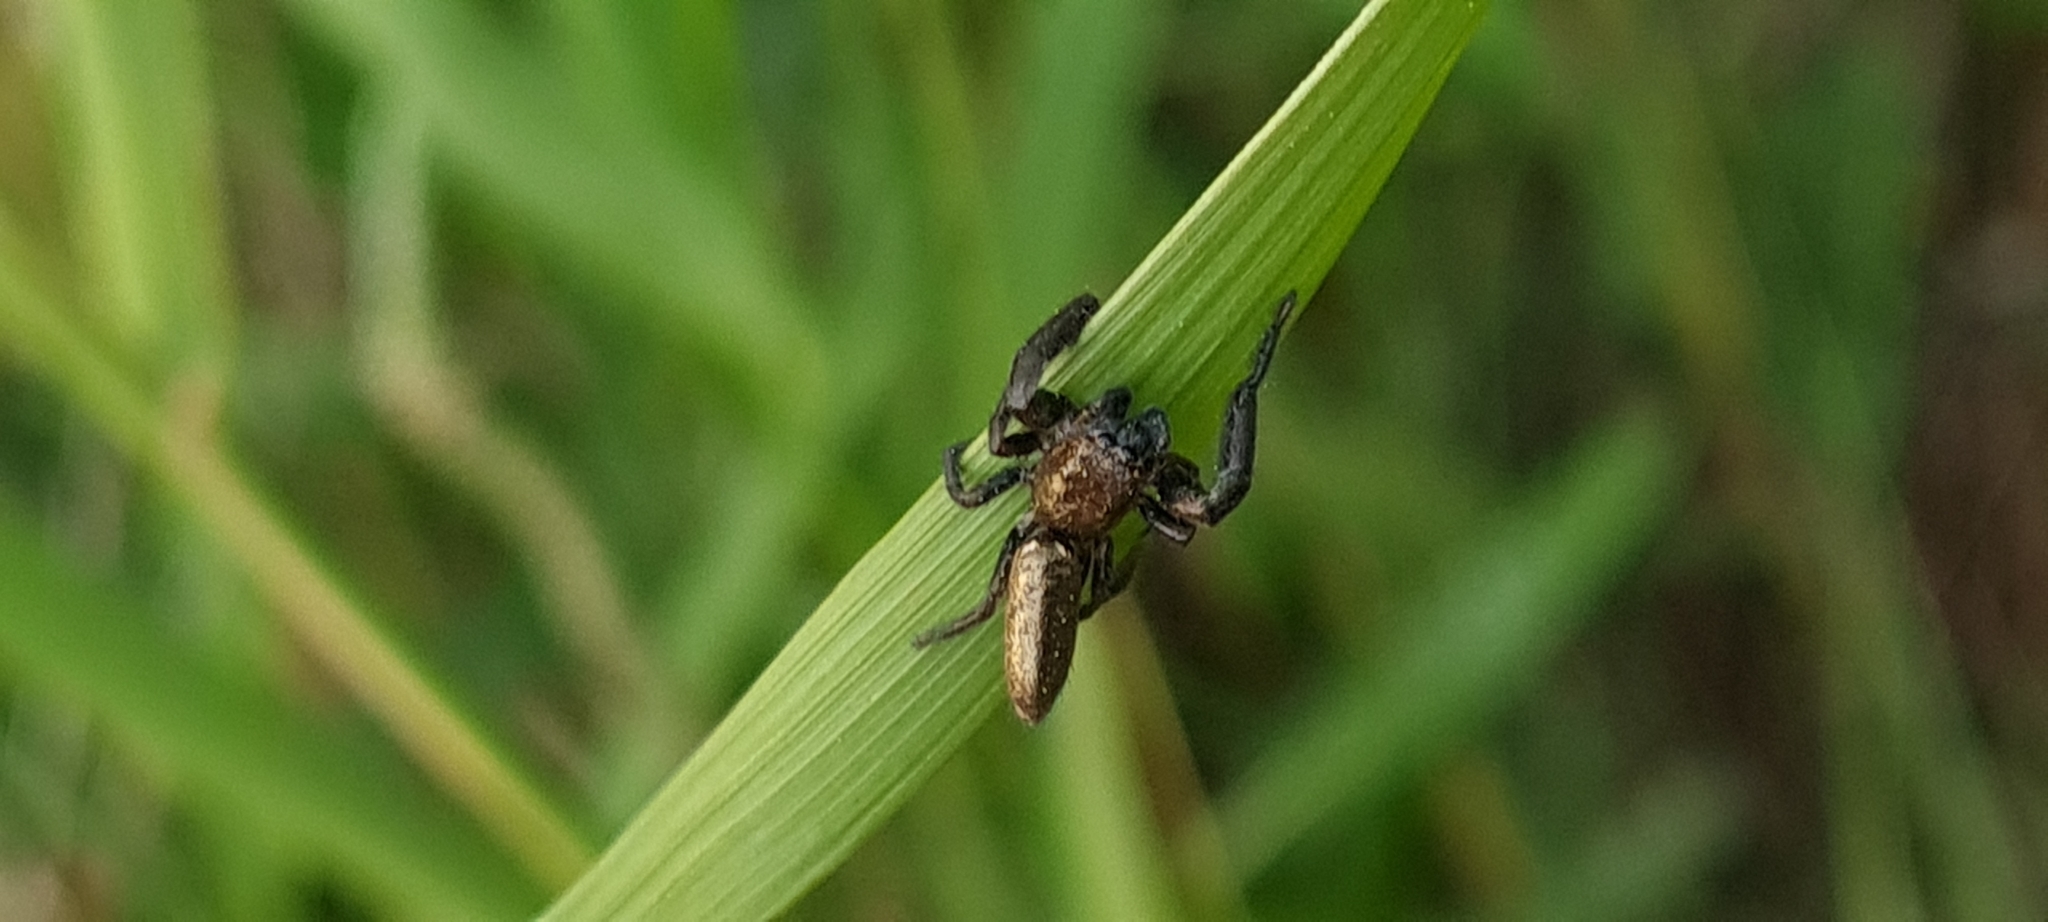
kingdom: Animalia
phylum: Arthropoda
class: Arachnida
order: Araneae
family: Salticidae
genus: Mendoza
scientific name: Mendoza canestrinii
